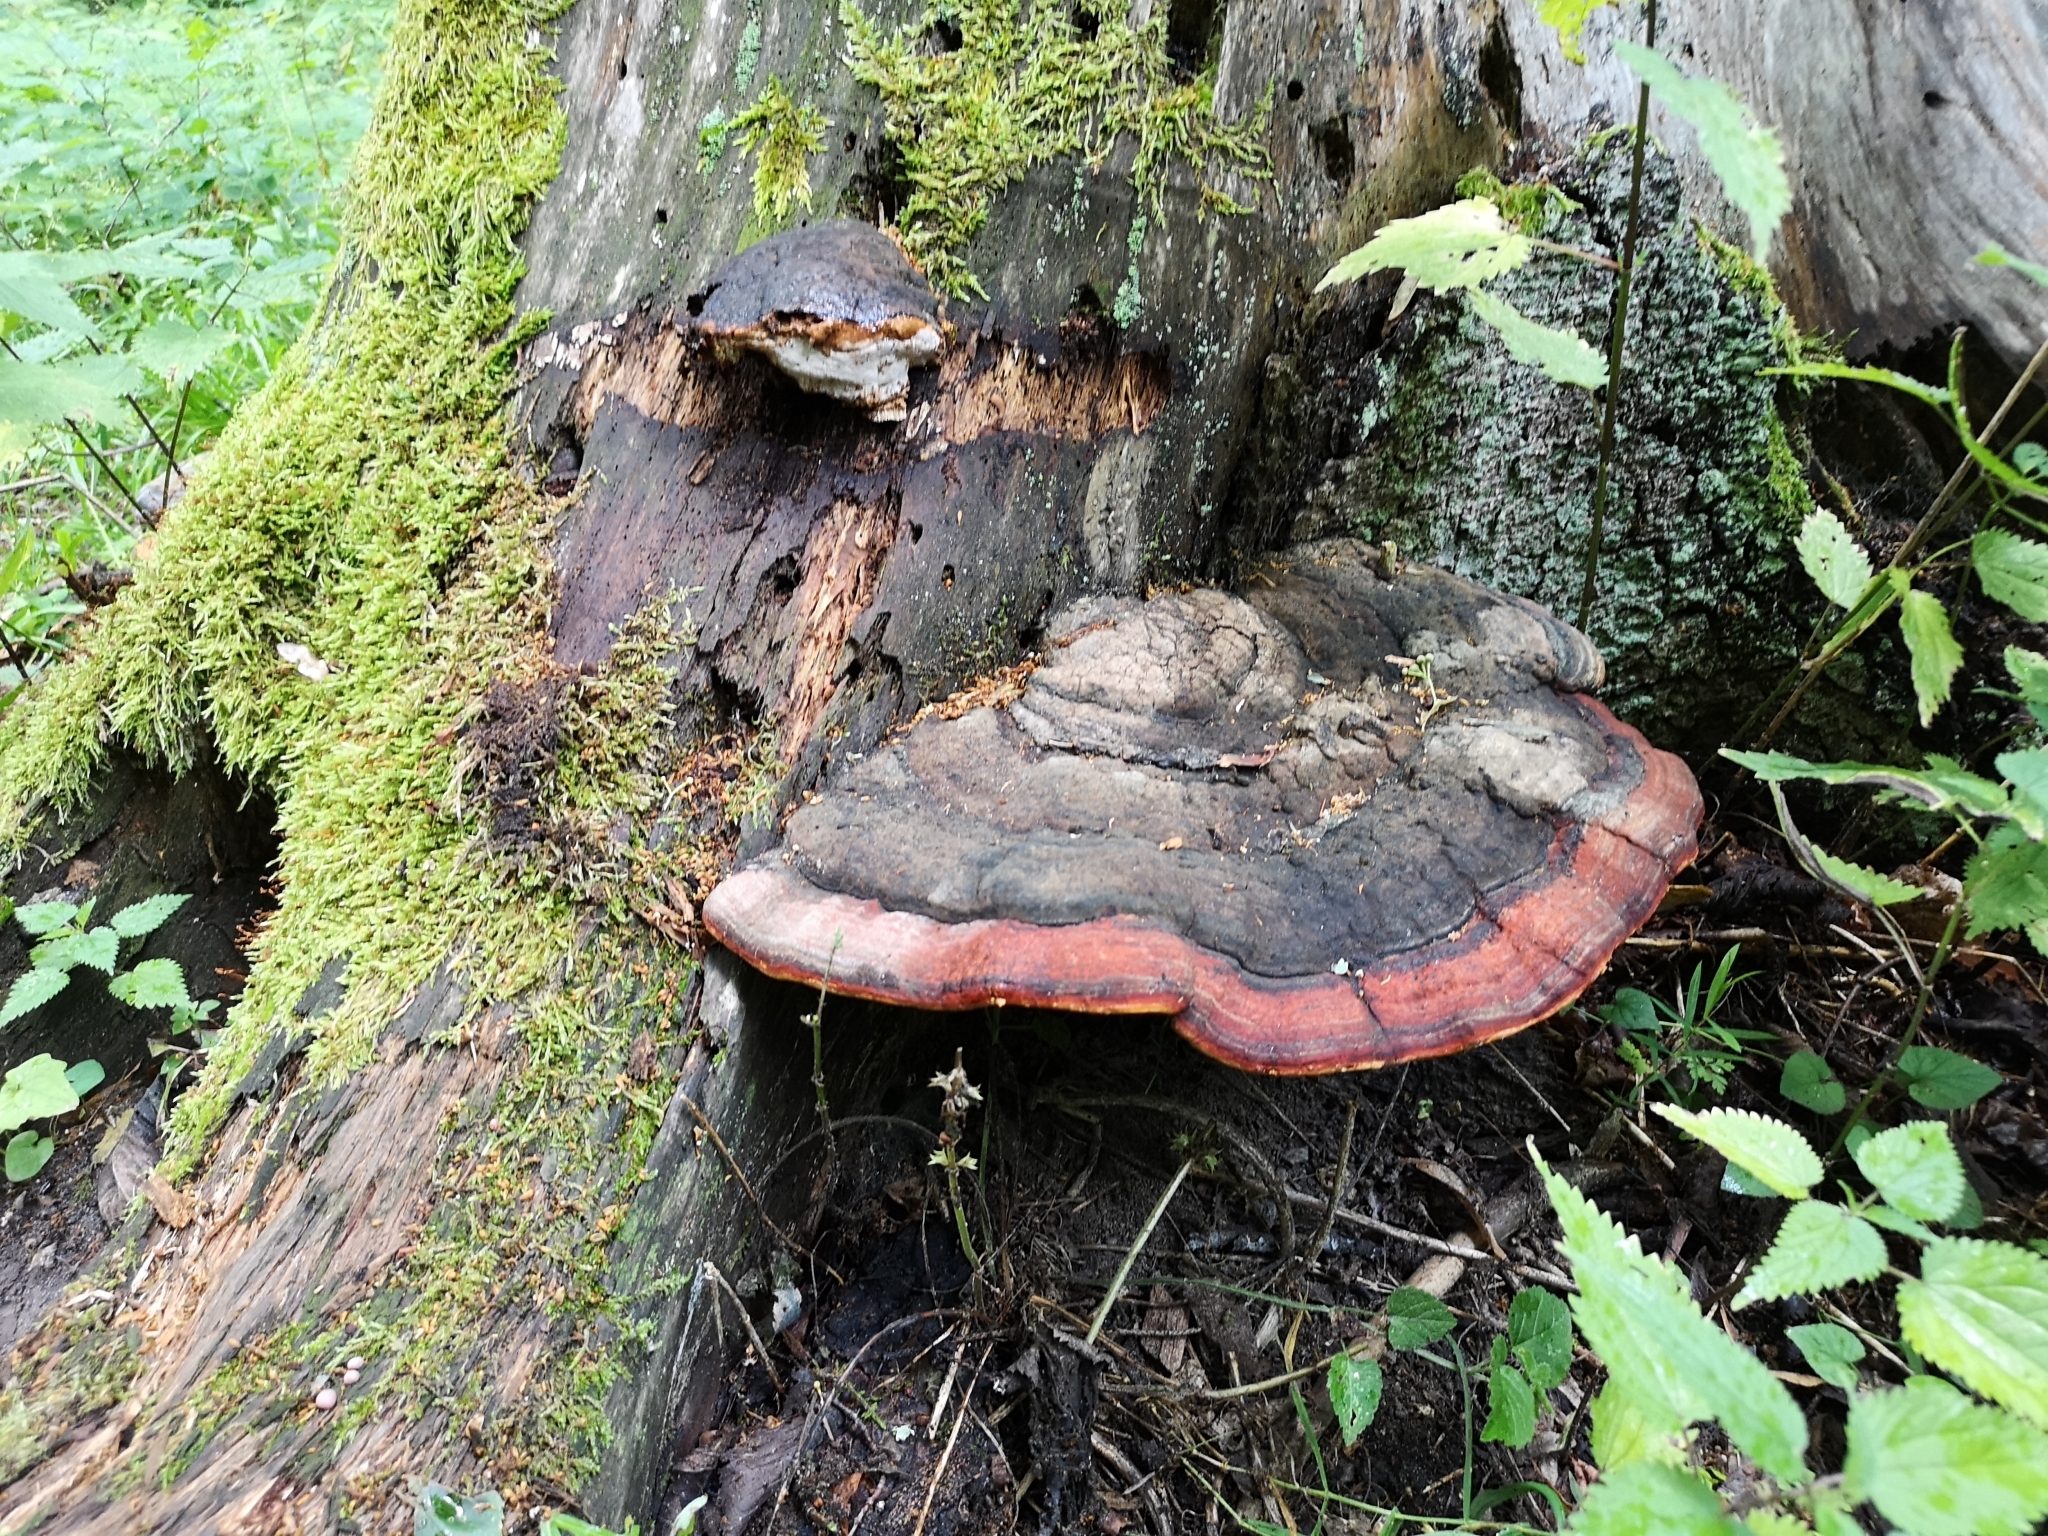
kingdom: Fungi
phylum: Basidiomycota
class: Agaricomycetes
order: Polyporales
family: Fomitopsidaceae
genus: Fomitopsis
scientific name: Fomitopsis pinicola
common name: Red-belted bracket
